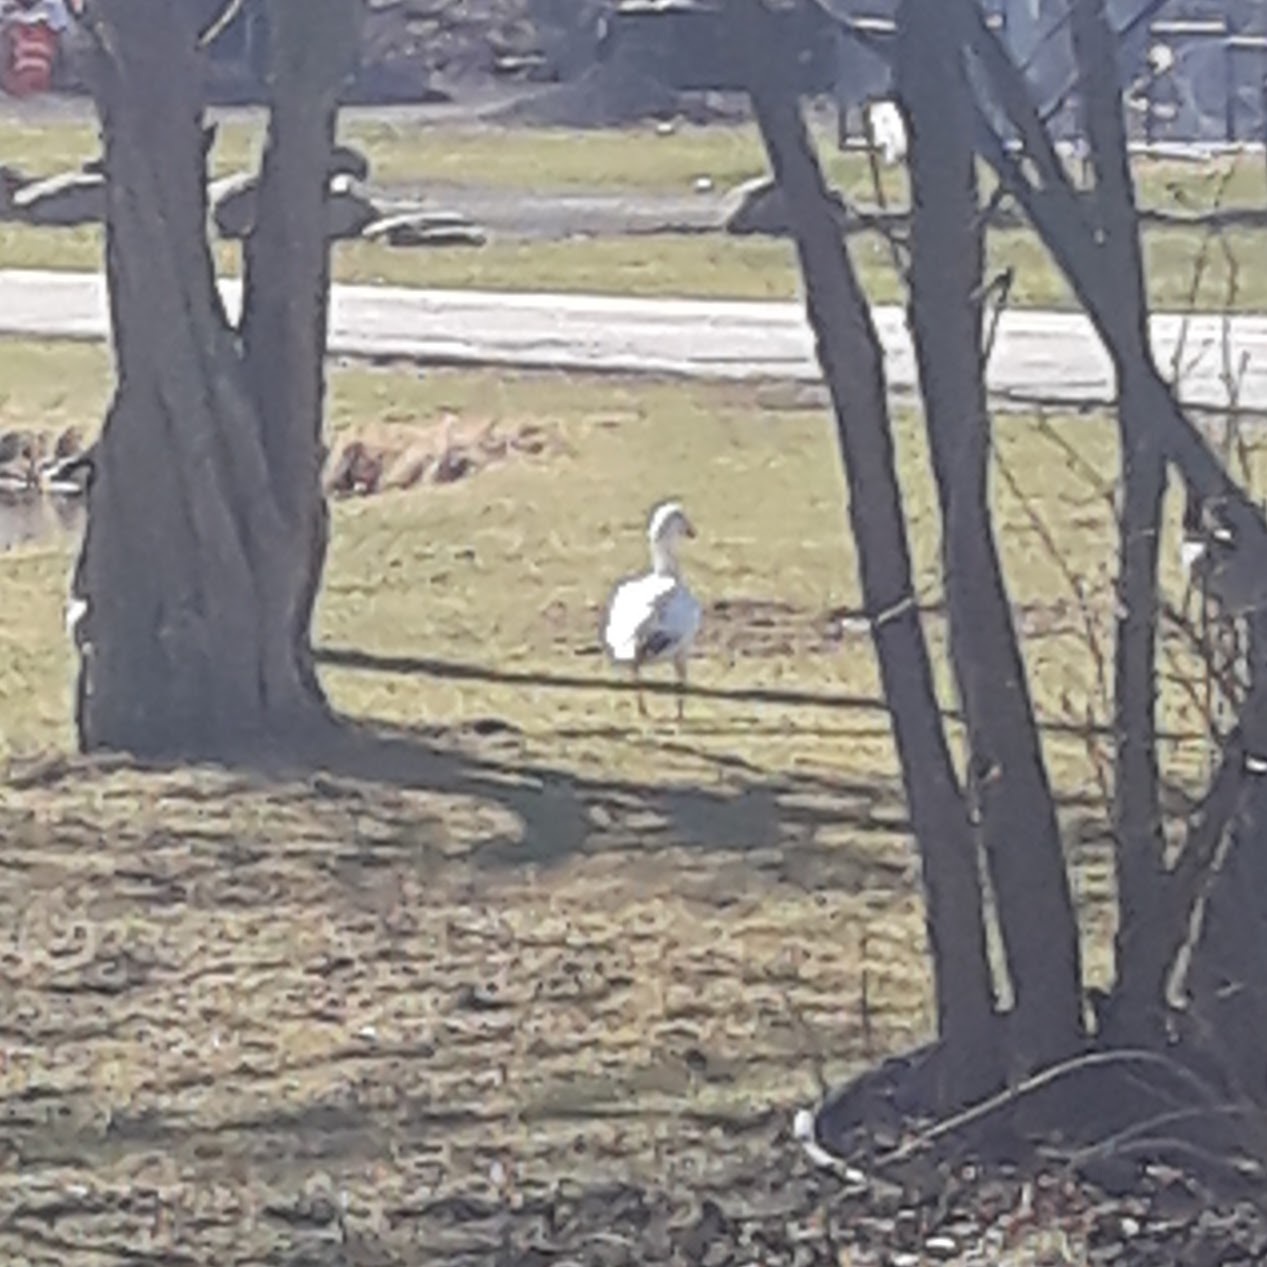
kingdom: Animalia
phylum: Chordata
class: Aves
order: Anseriformes
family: Anatidae
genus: Anser
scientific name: Anser caerulescens
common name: Snow goose
